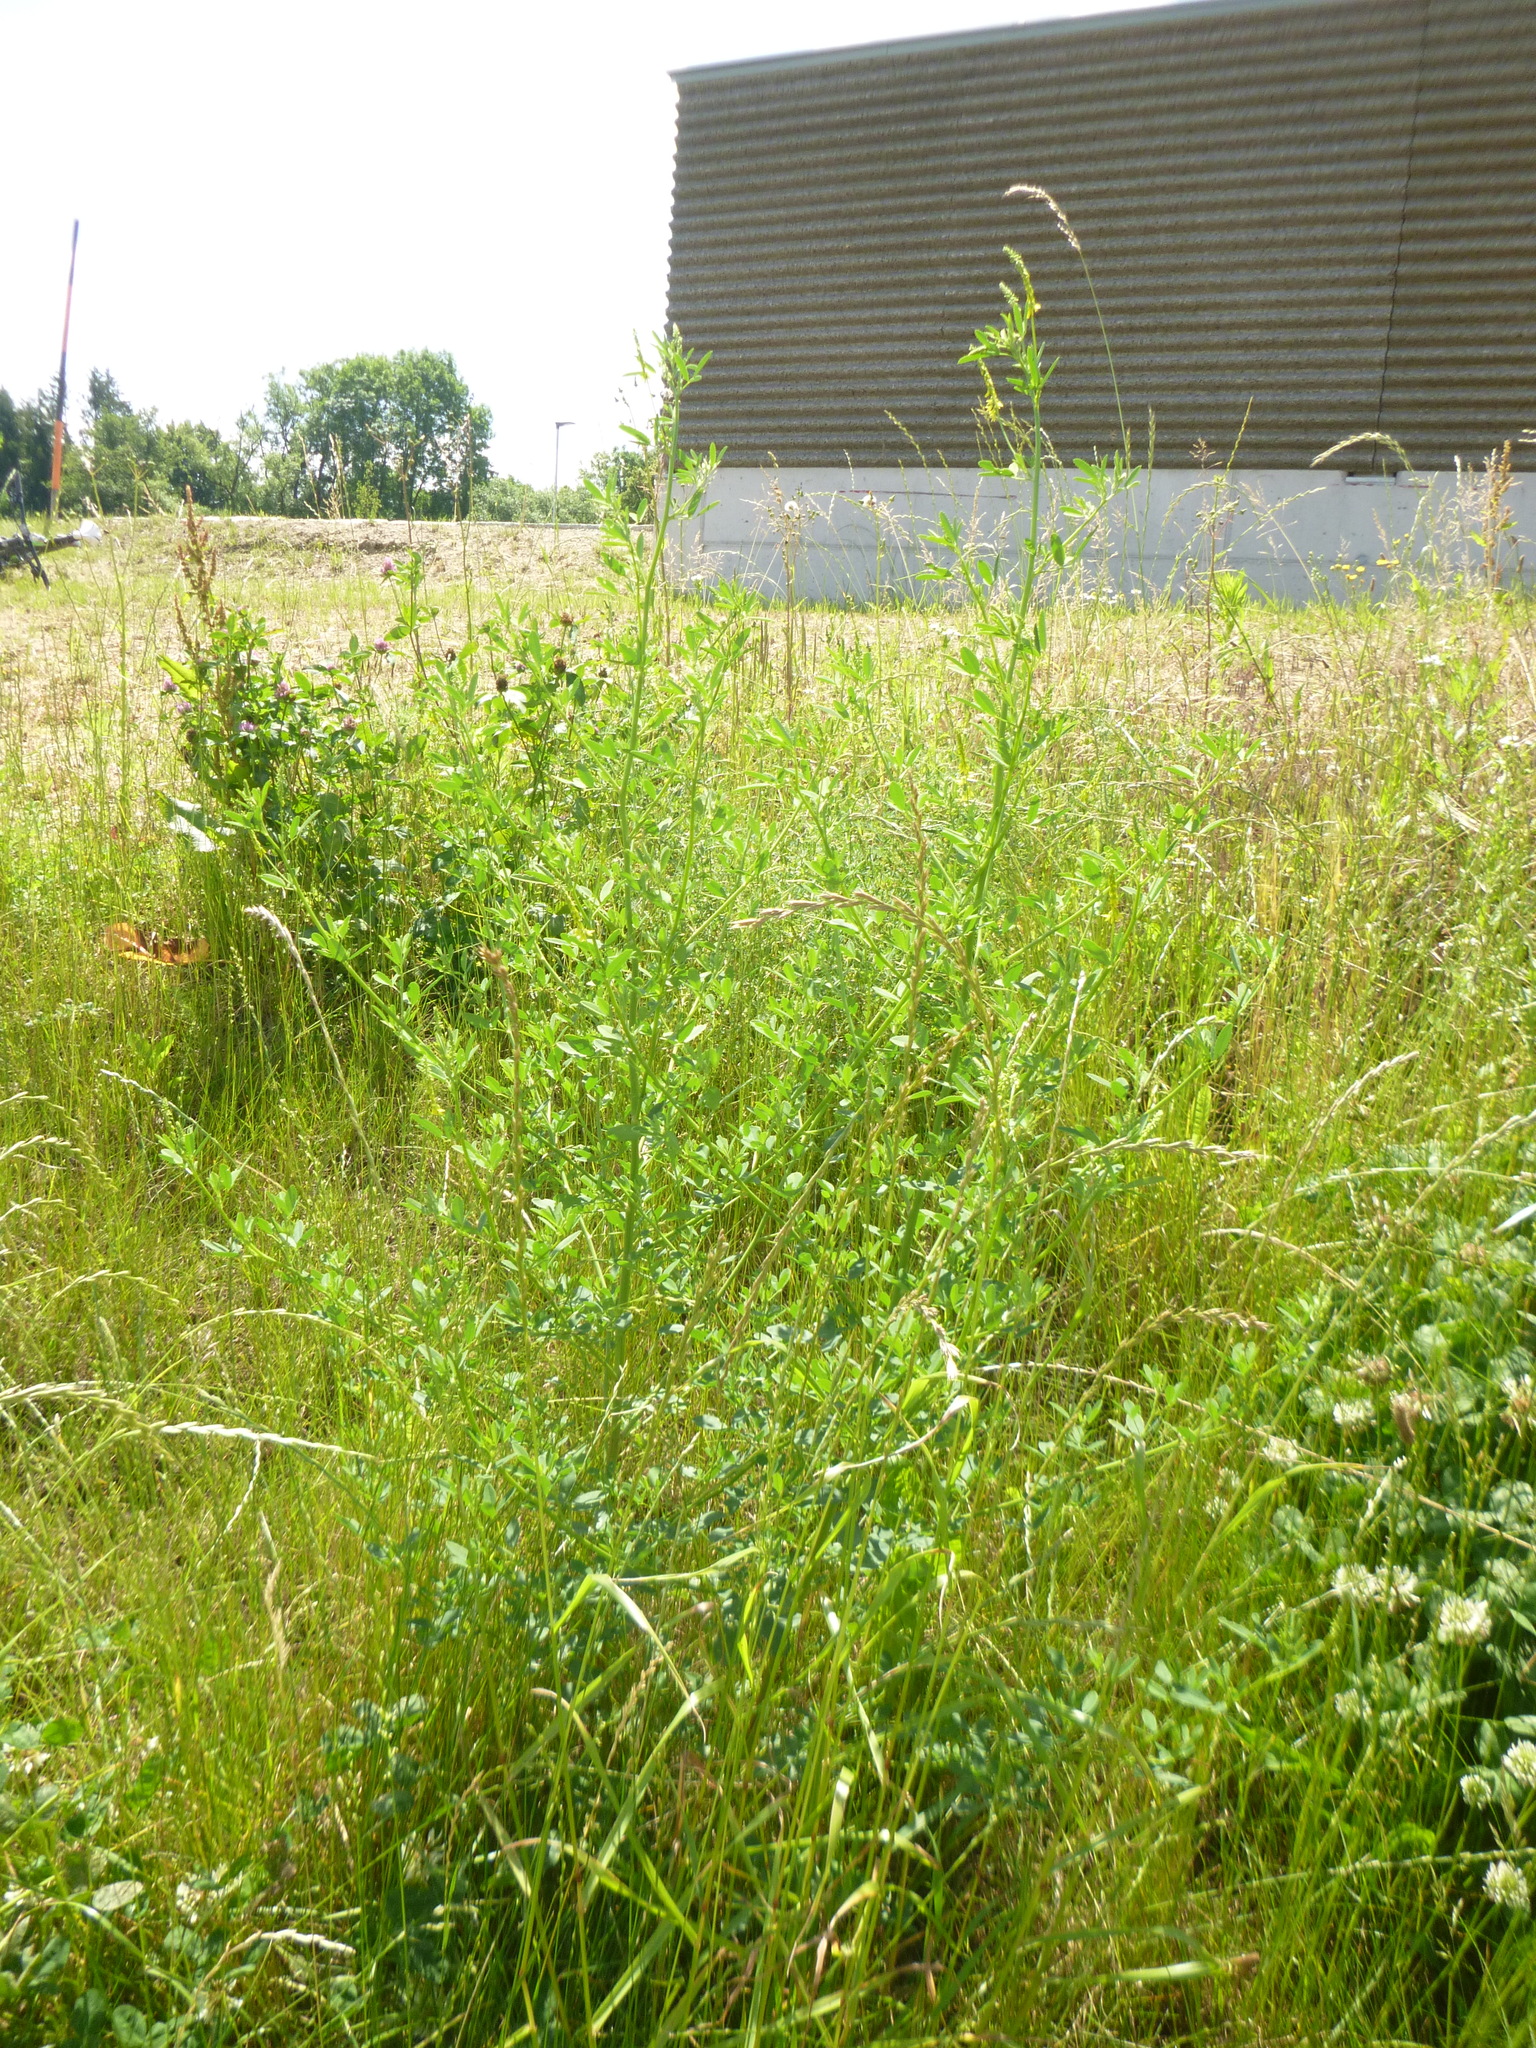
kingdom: Plantae
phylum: Tracheophyta
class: Magnoliopsida
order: Fabales
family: Fabaceae
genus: Melilotus
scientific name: Melilotus officinalis
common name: Sweetclover
